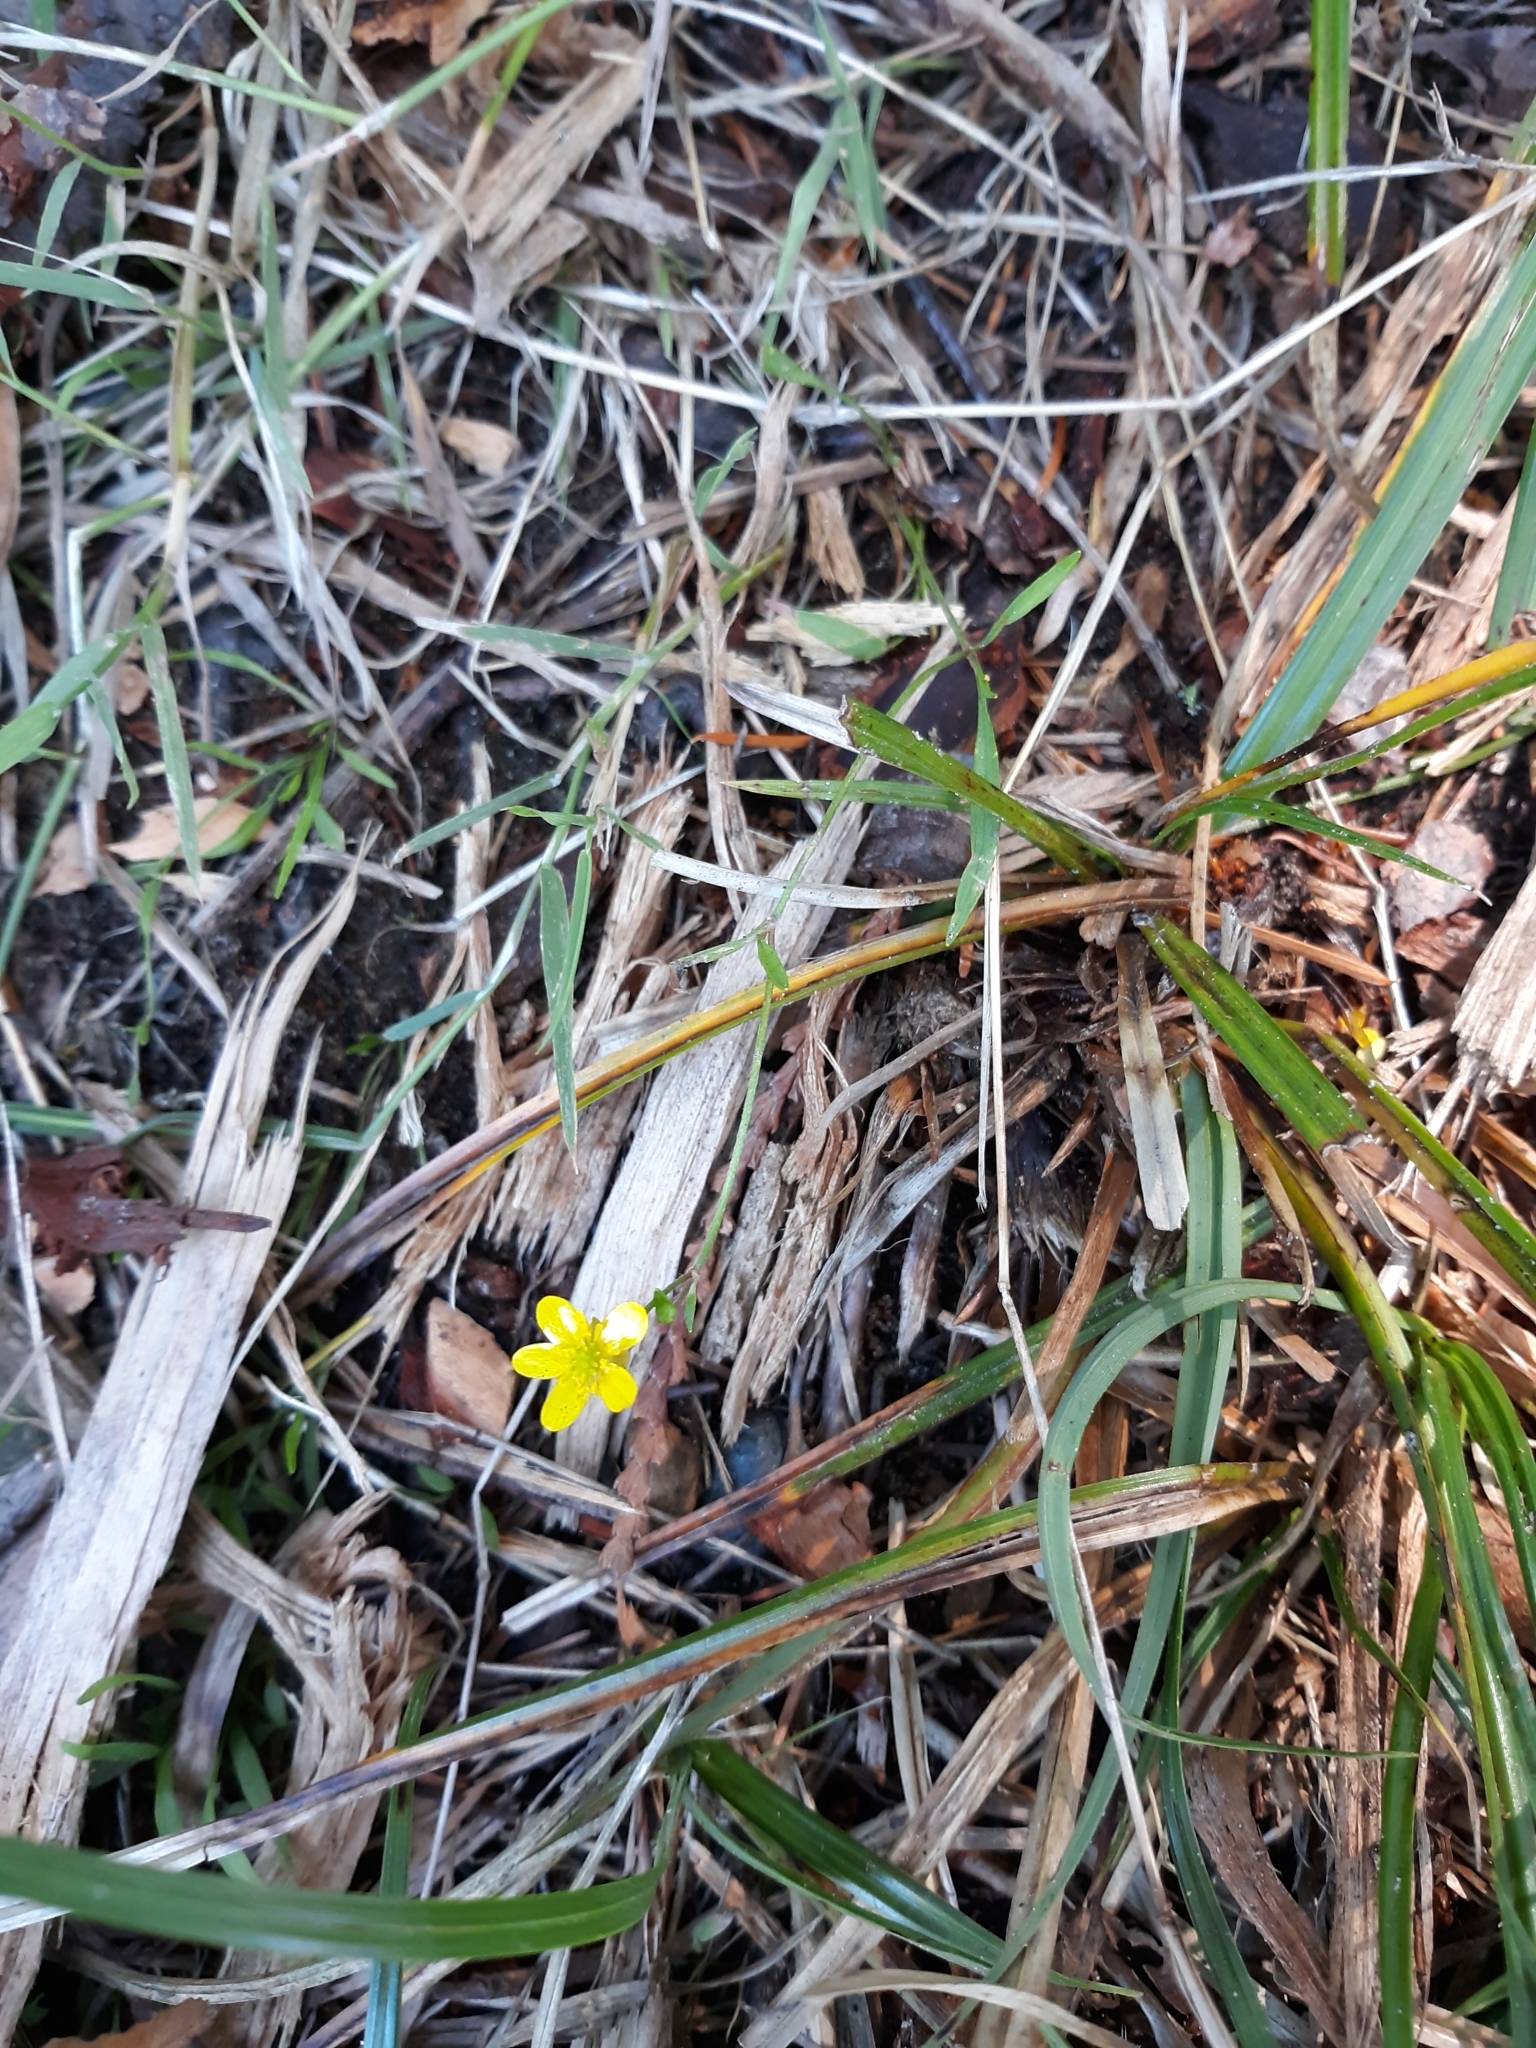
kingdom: Plantae
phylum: Tracheophyta
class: Magnoliopsida
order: Ranunculales
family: Ranunculaceae
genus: Ranunculus
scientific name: Ranunculus flammula
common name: Lesser spearwort
